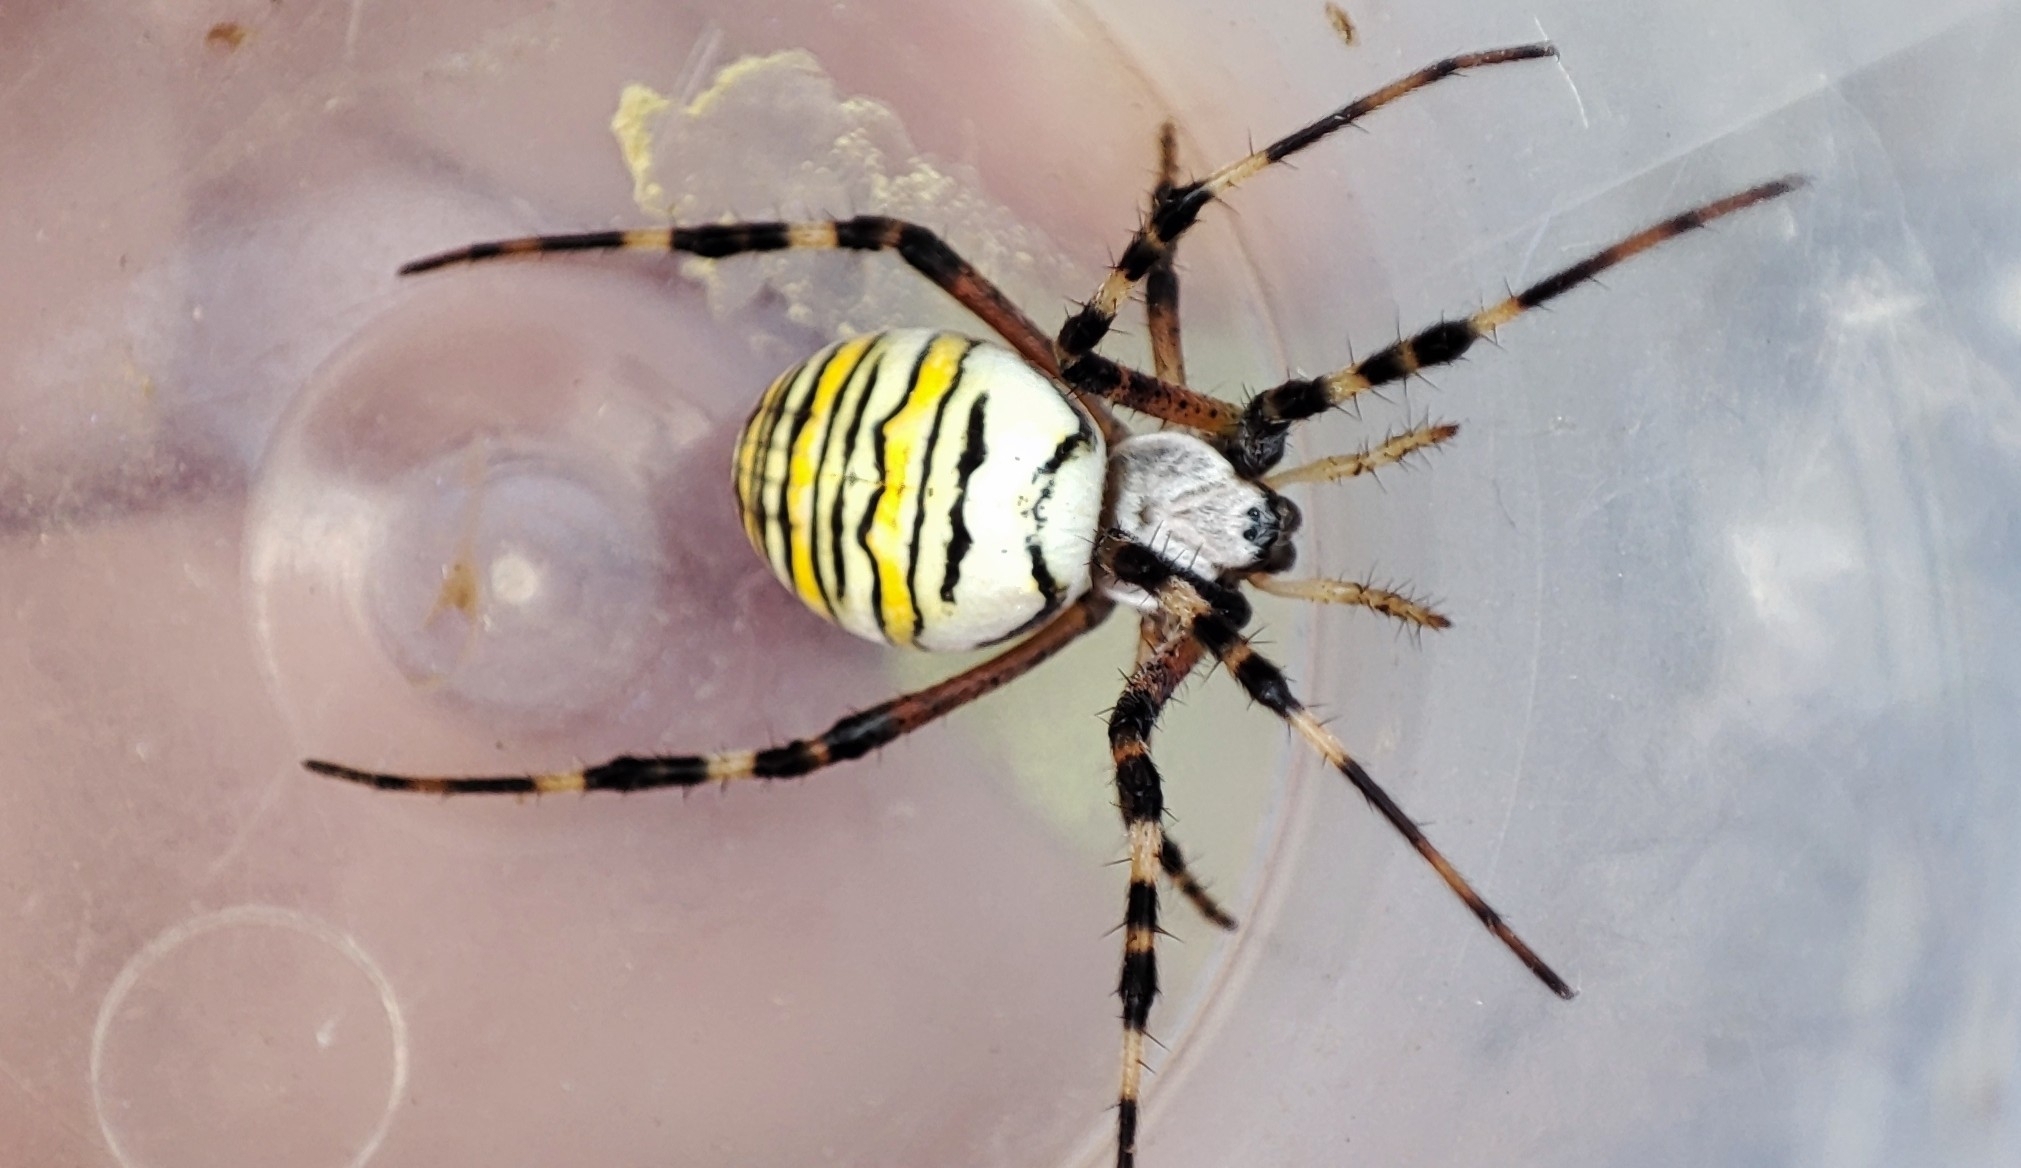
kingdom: Animalia
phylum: Arthropoda
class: Arachnida
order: Araneae
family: Araneidae
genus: Argiope
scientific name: Argiope bruennichi
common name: Wasp spider
